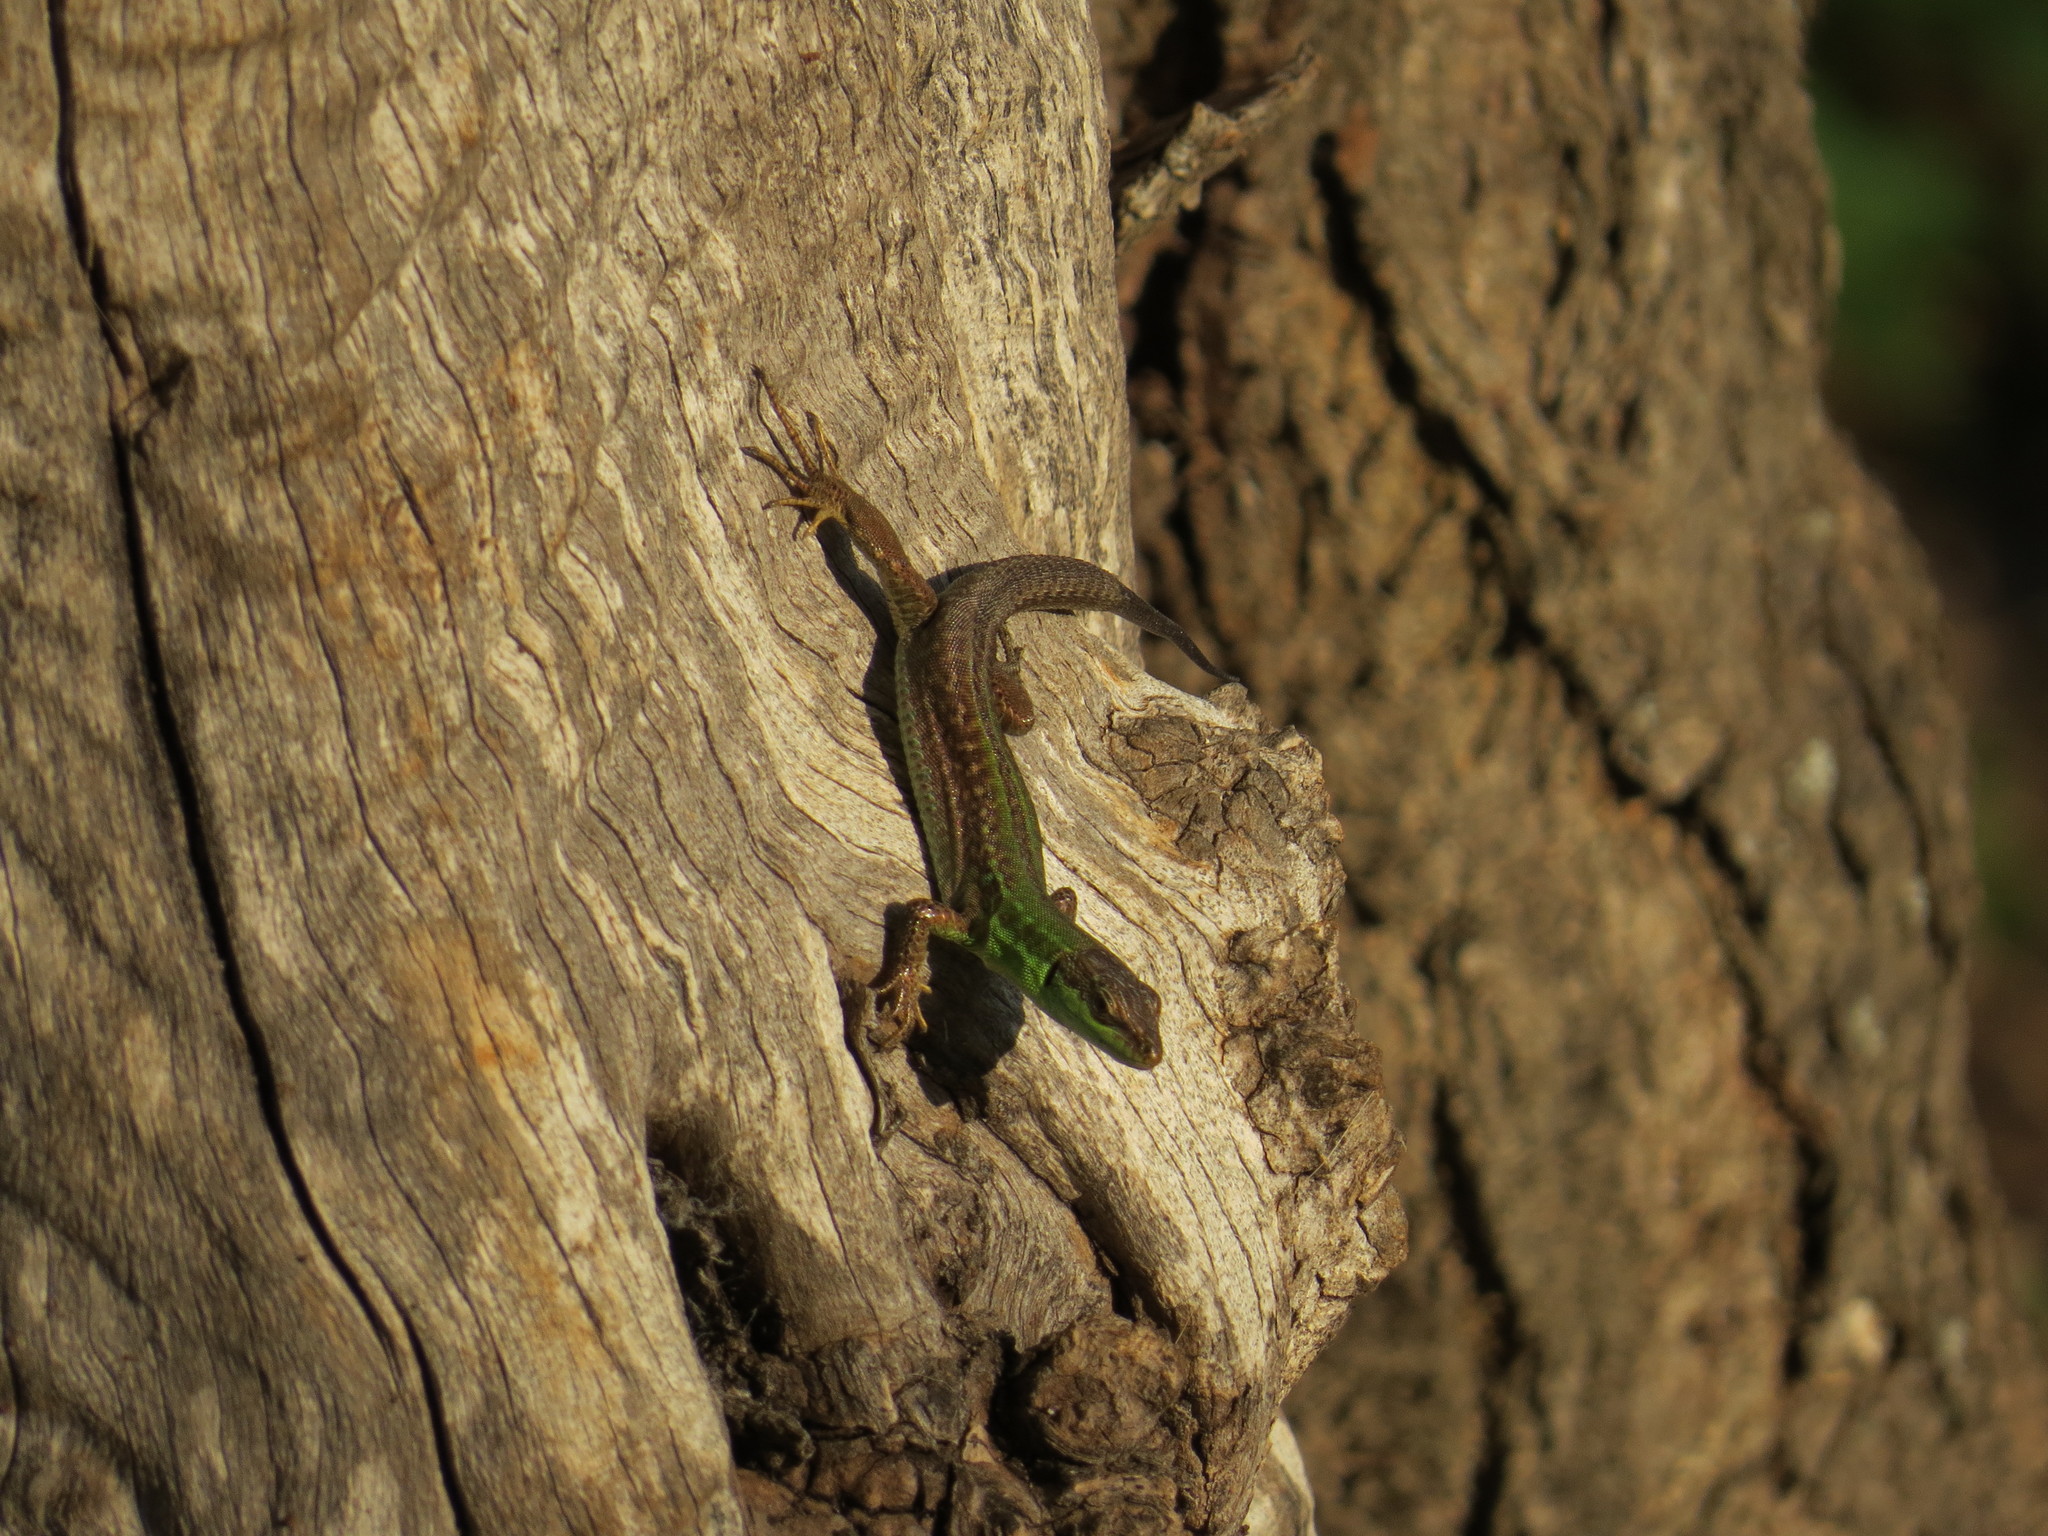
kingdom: Animalia
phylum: Chordata
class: Squamata
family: Lacertidae
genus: Podarcis
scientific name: Podarcis siculus
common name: Italian wall lizard
